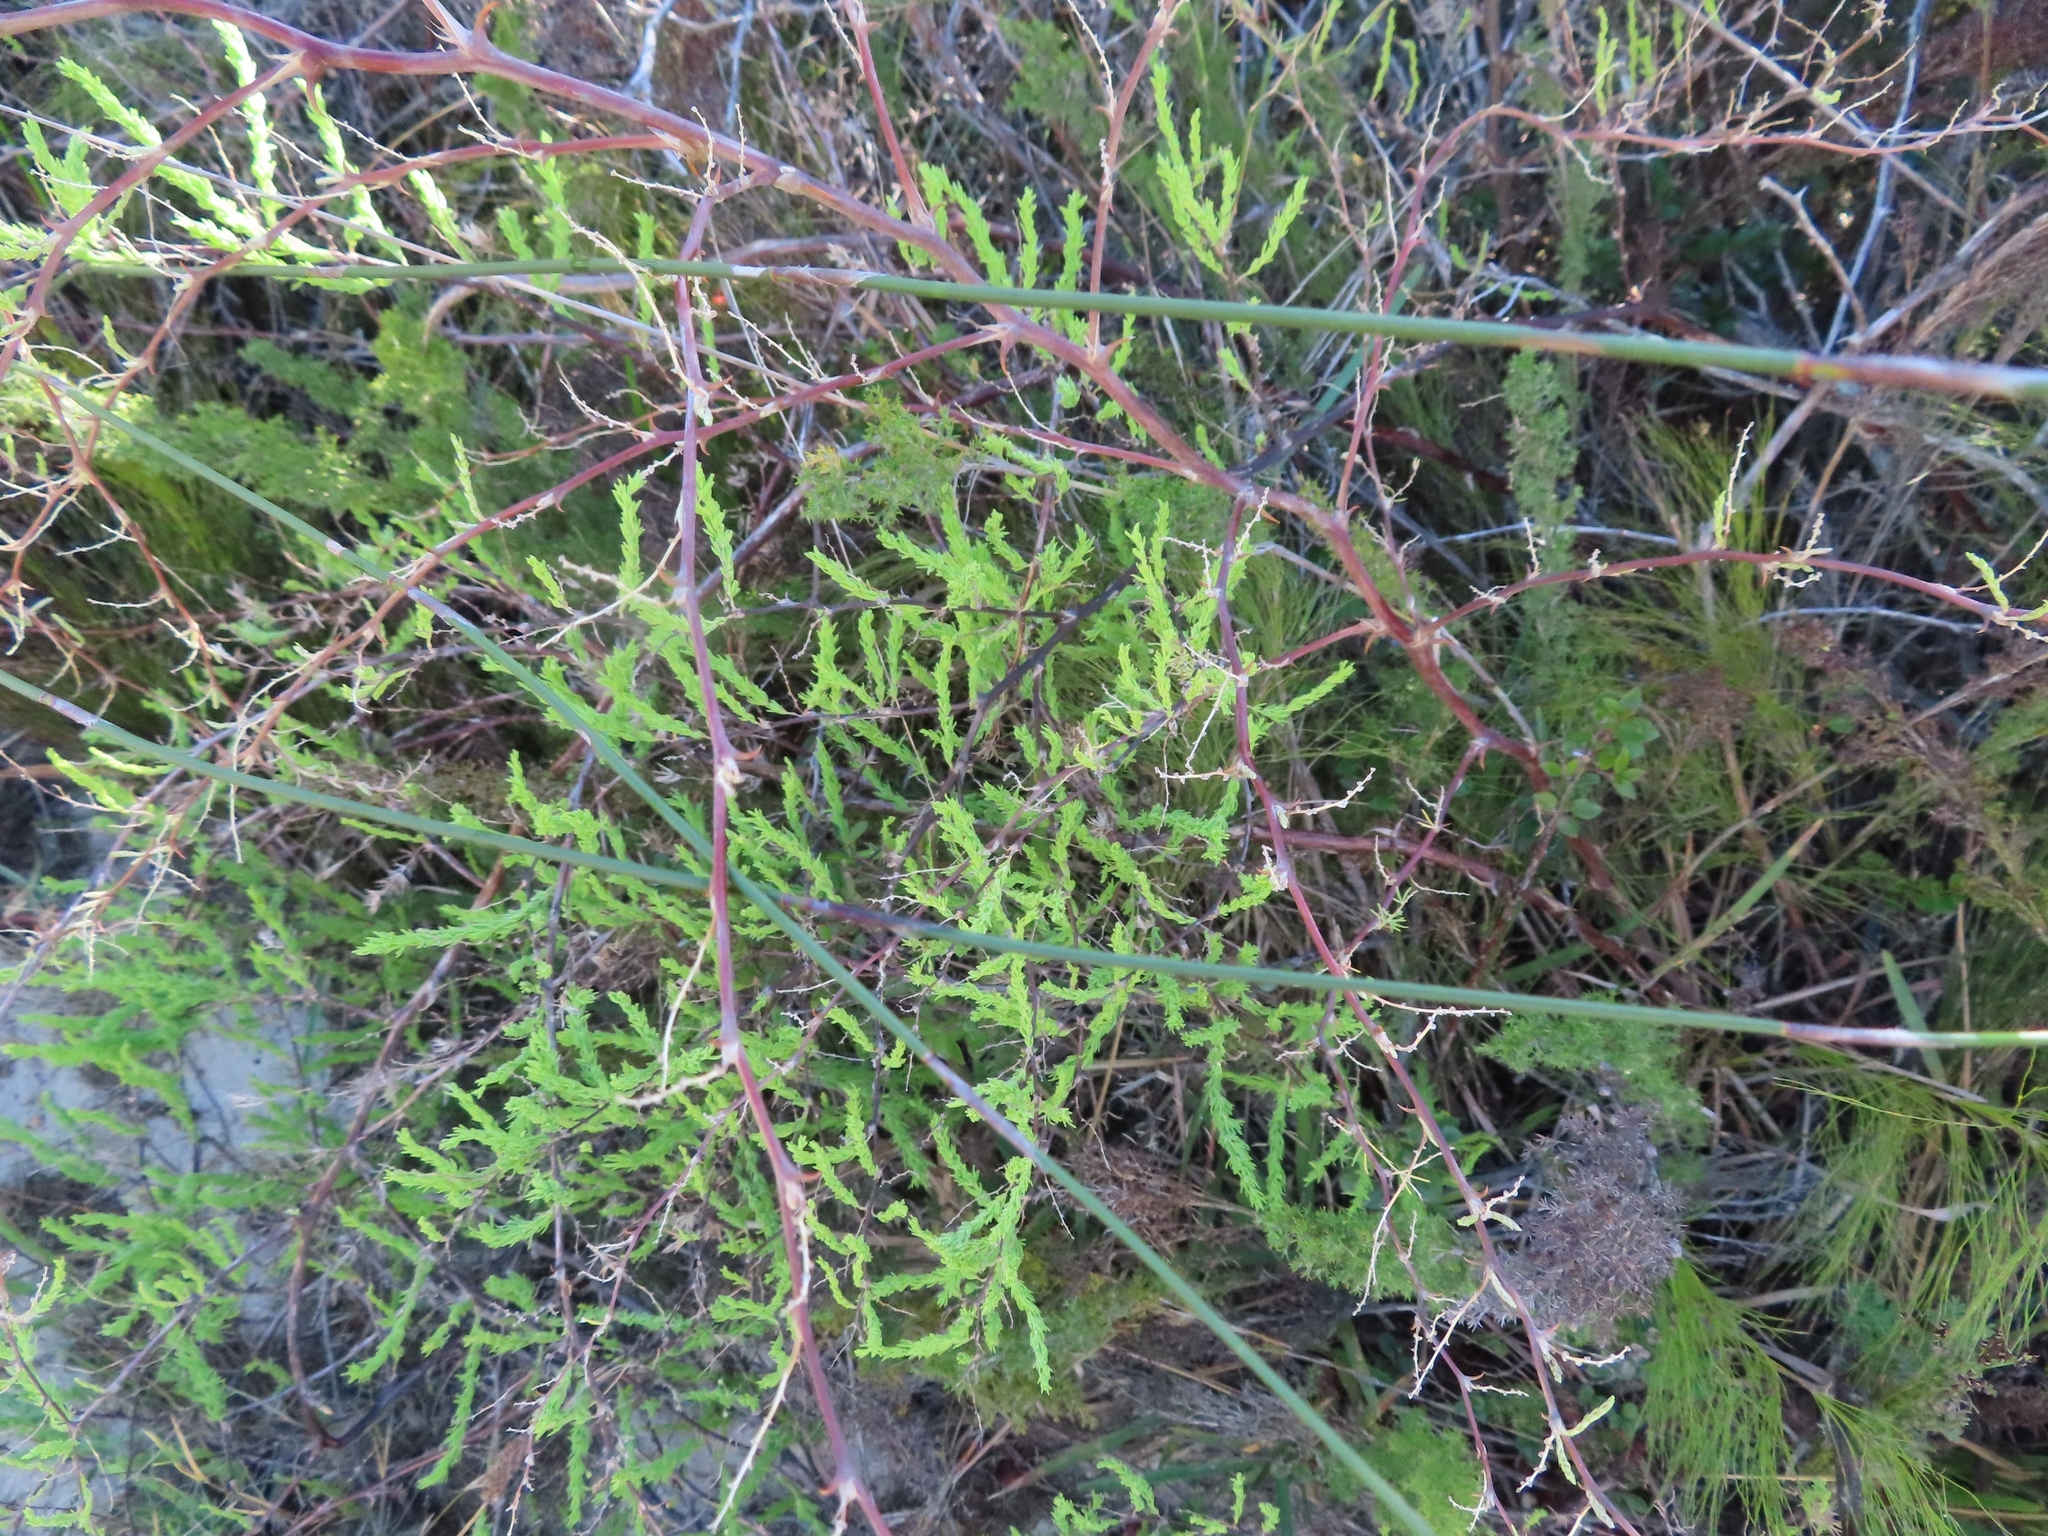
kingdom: Plantae
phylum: Tracheophyta
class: Liliopsida
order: Asparagales
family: Asparagaceae
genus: Asparagus
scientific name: Asparagus rubicundus
